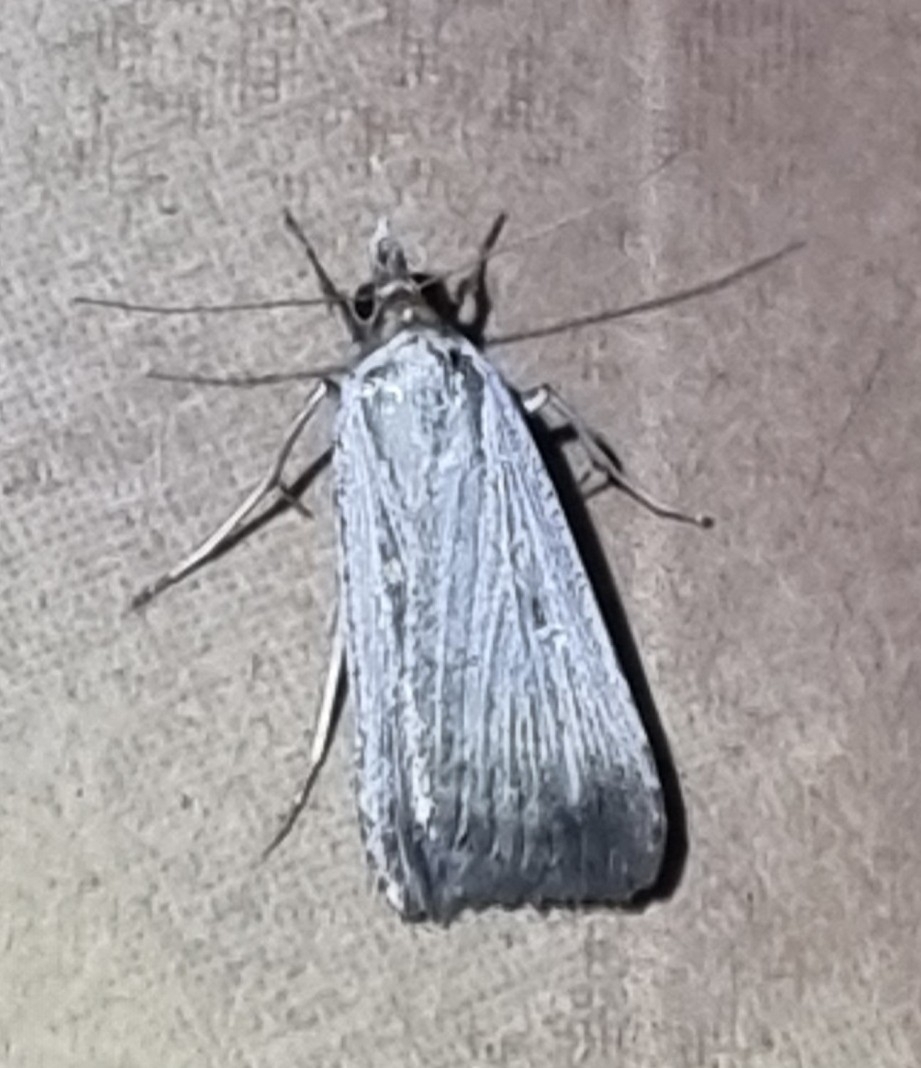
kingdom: Animalia
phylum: Arthropoda
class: Insecta
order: Lepidoptera
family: Noctuidae
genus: Tathorhynchus
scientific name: Tathorhynchus fallax
